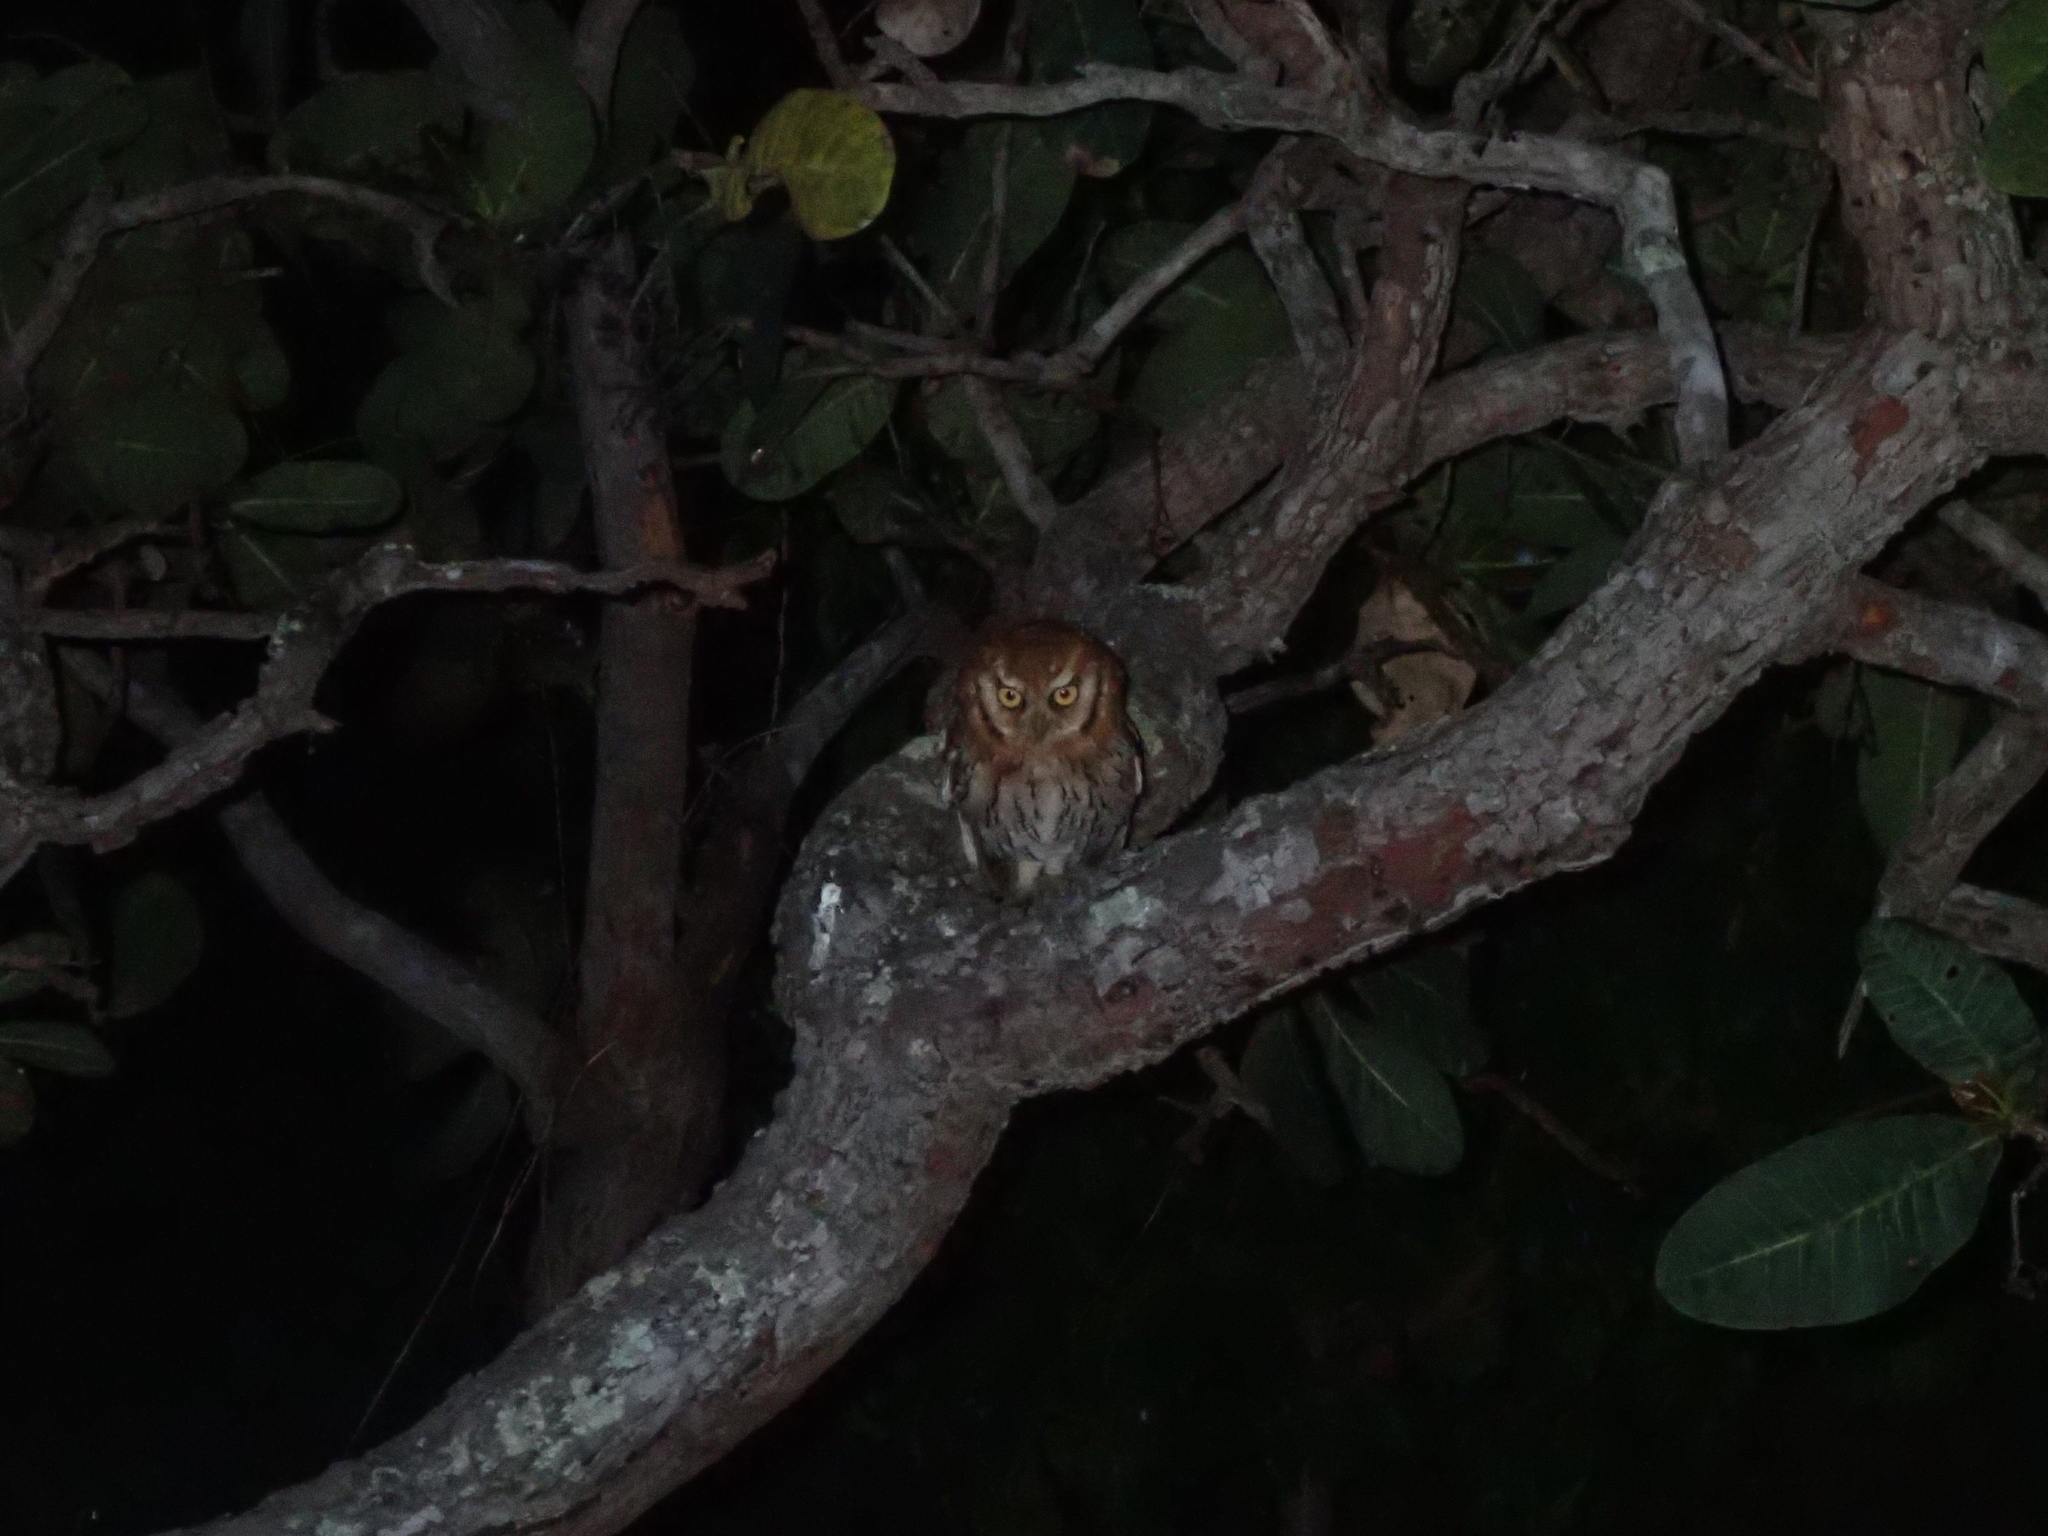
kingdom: Animalia
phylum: Chordata
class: Aves
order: Strigiformes
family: Strigidae
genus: Megascops
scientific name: Megascops choliba
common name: Tropical screech-owl
